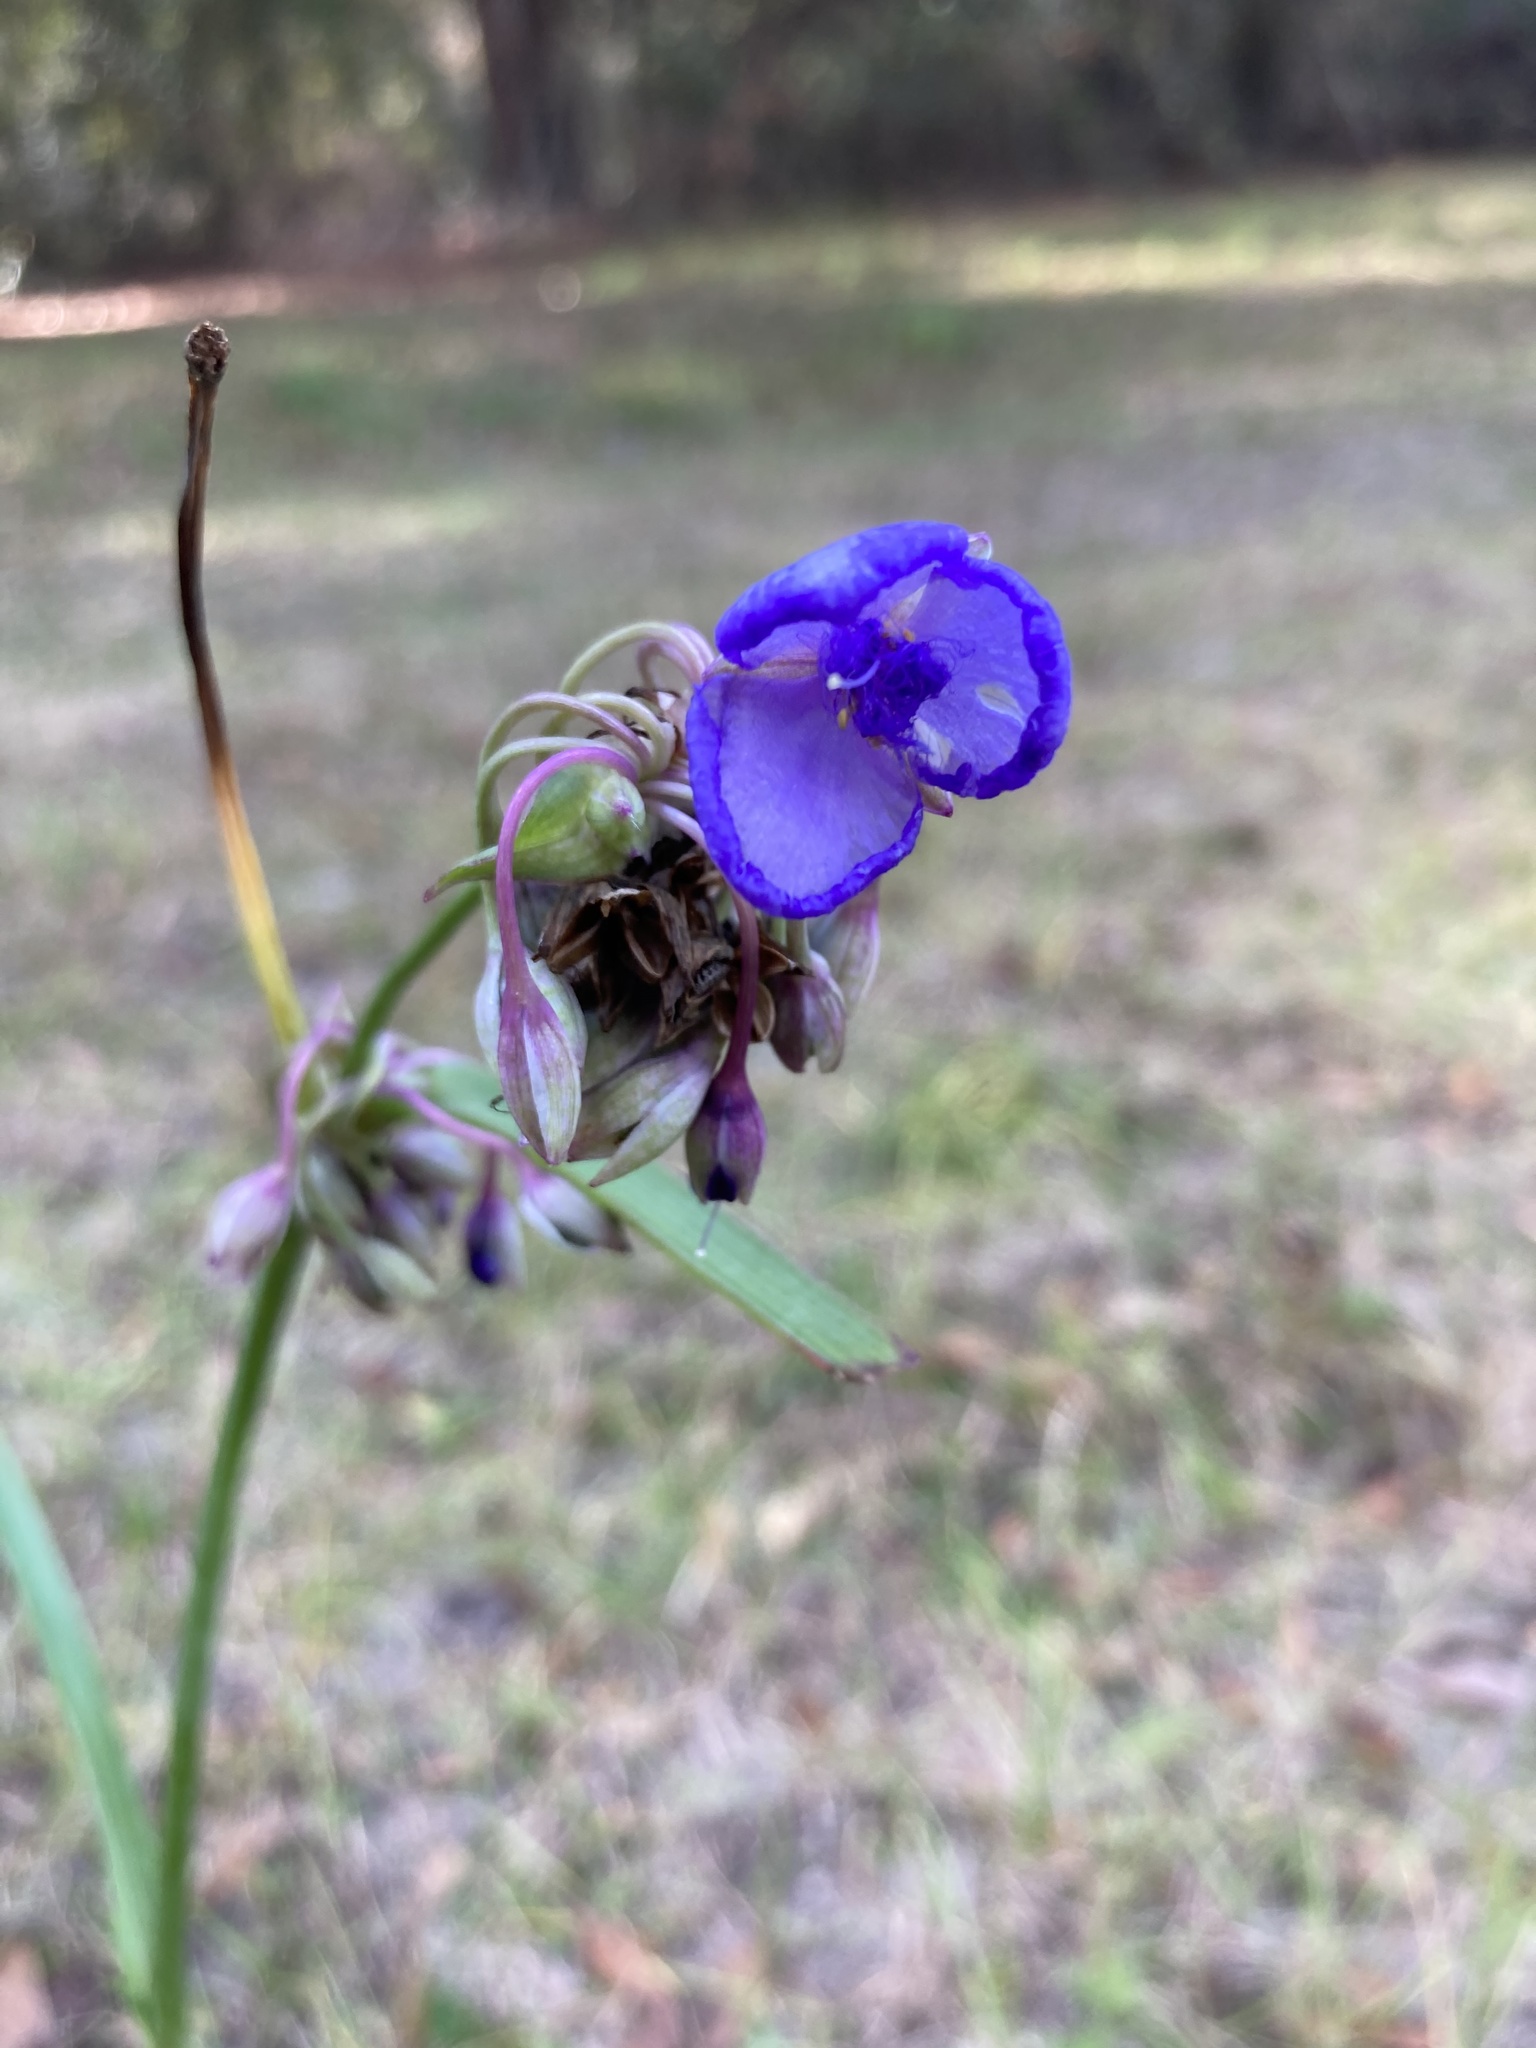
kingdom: Plantae
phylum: Tracheophyta
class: Liliopsida
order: Commelinales
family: Commelinaceae
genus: Tradescantia
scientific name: Tradescantia ohiensis
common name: Ohio spiderwort
